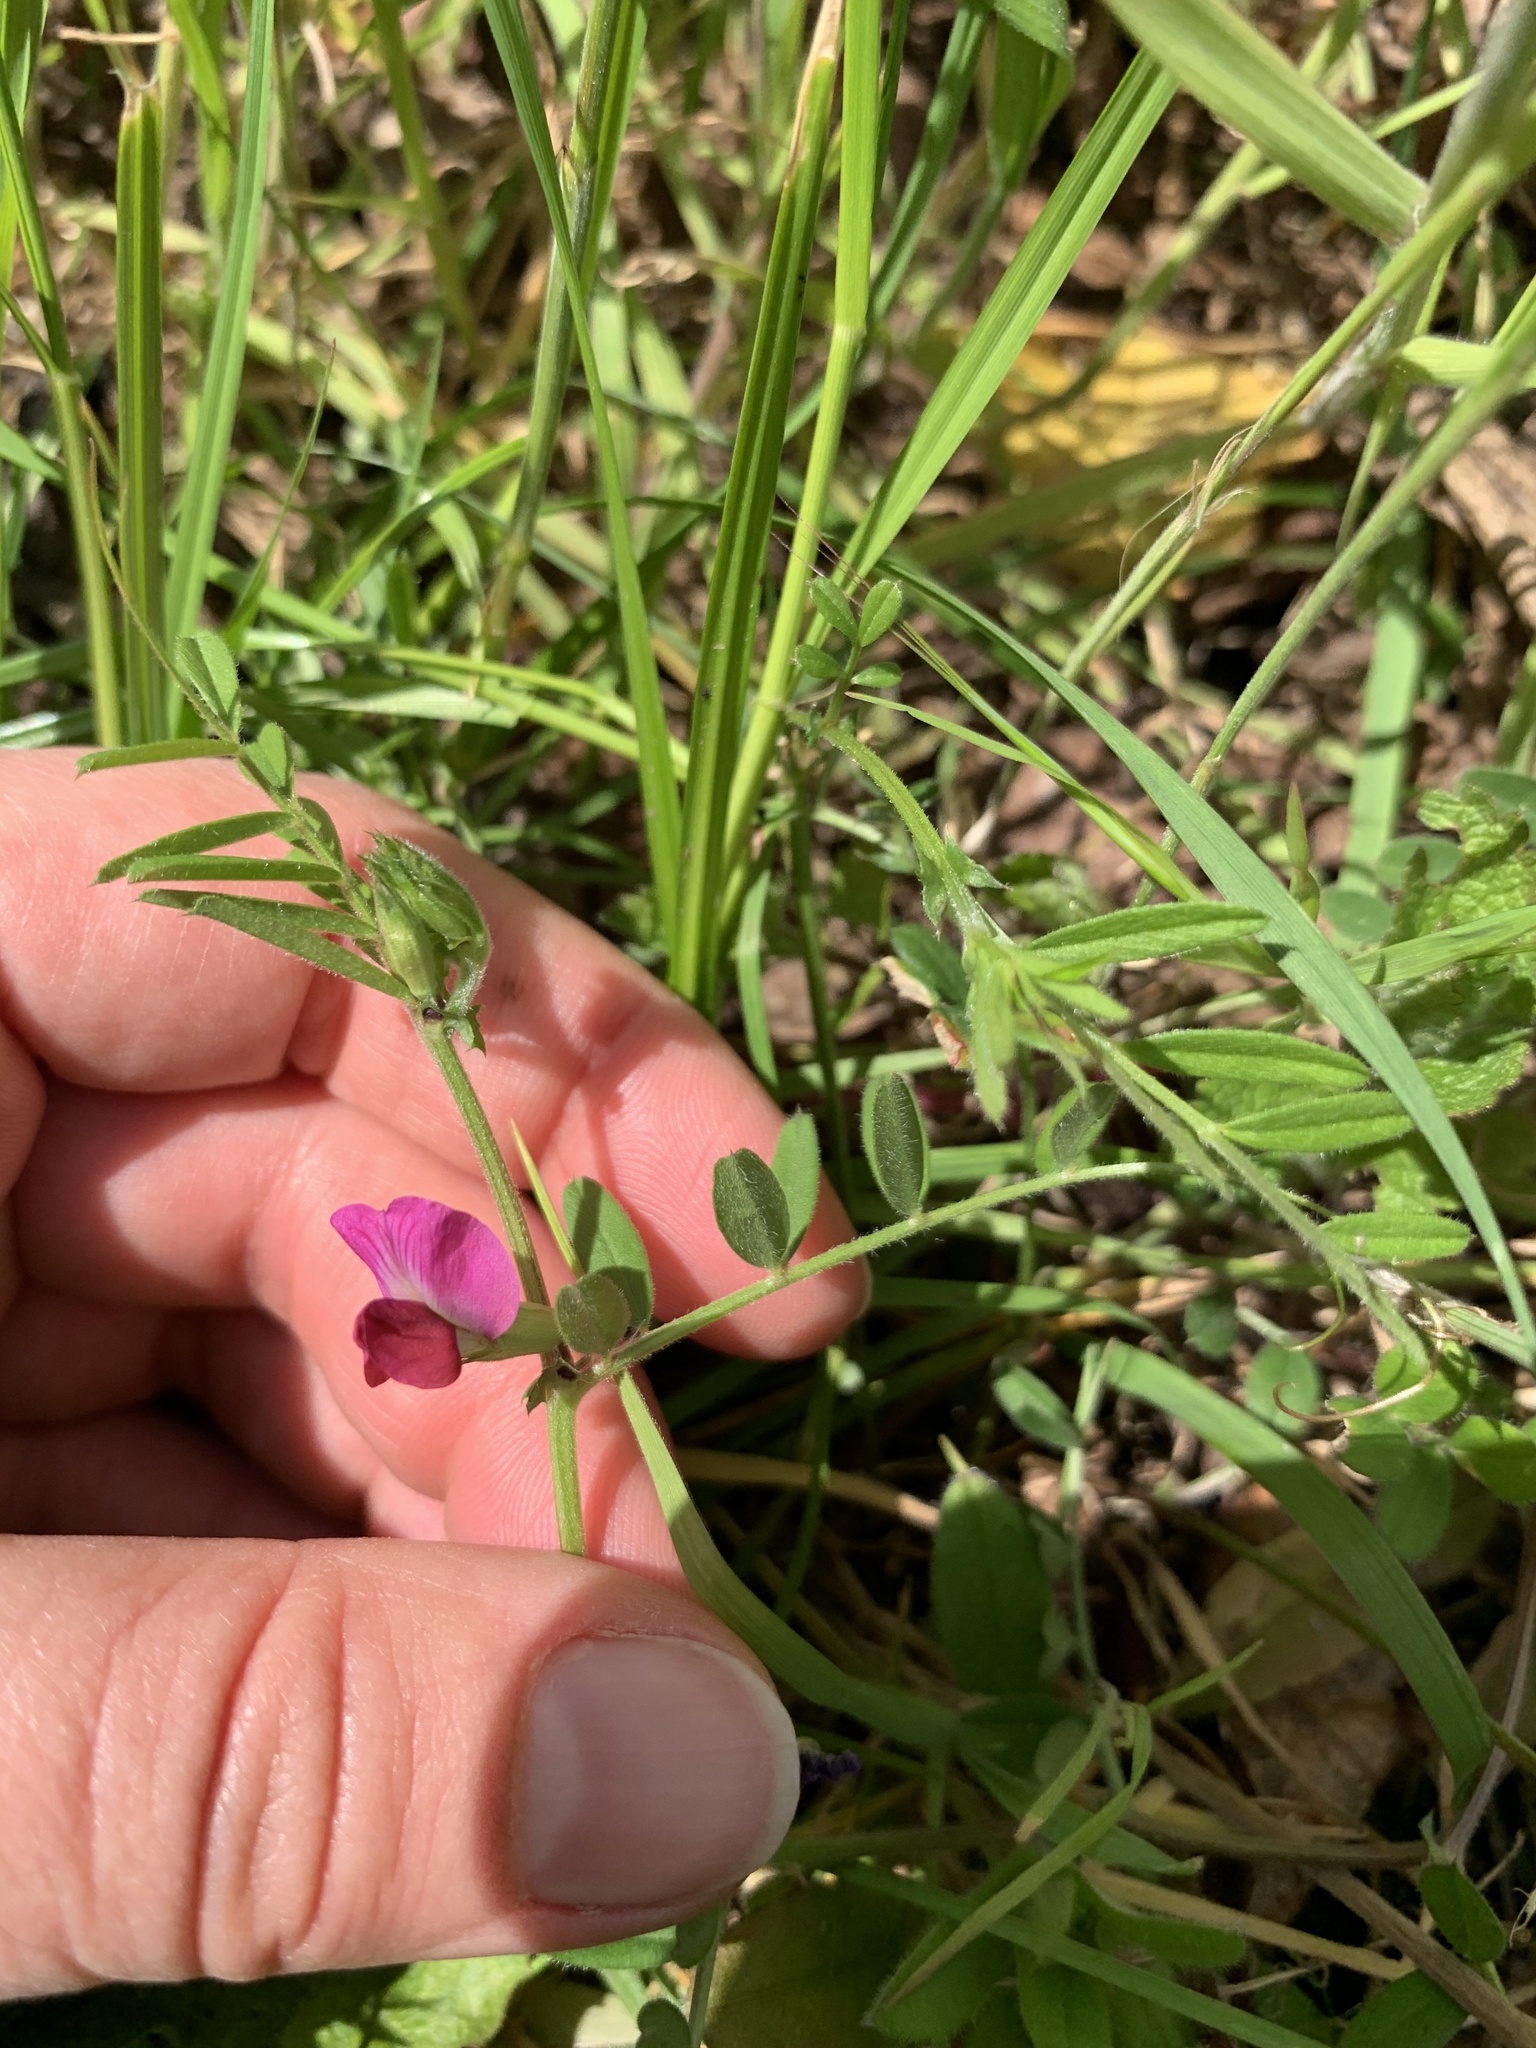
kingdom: Plantae
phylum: Tracheophyta
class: Magnoliopsida
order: Fabales
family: Fabaceae
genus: Vicia
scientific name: Vicia sativa
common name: Garden vetch
